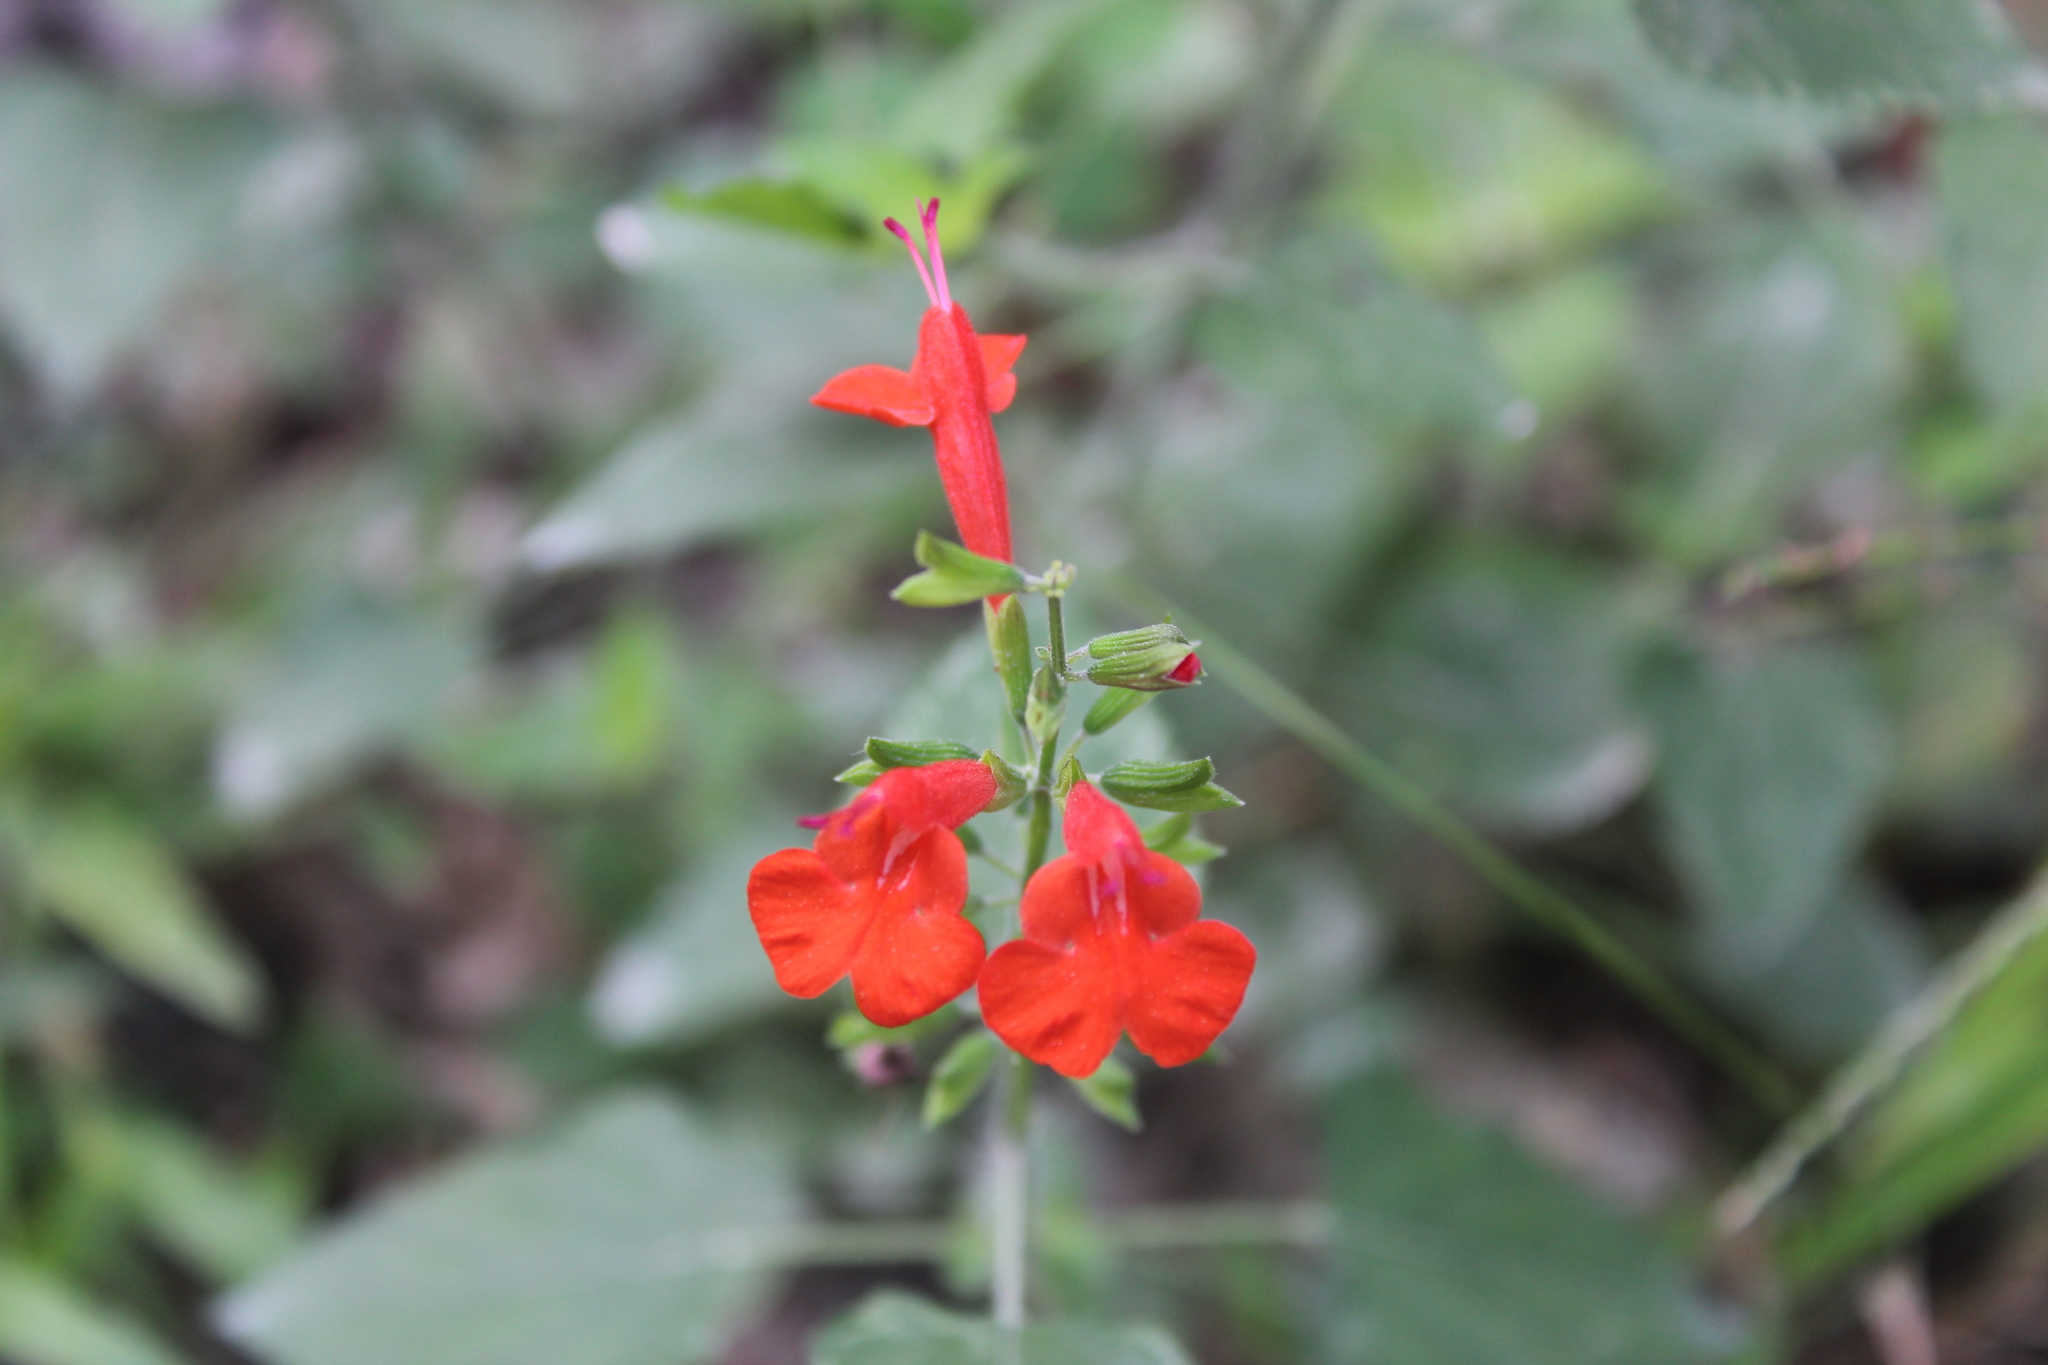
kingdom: Plantae
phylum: Tracheophyta
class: Magnoliopsida
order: Lamiales
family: Lamiaceae
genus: Salvia
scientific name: Salvia coccinea
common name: Blood sage
